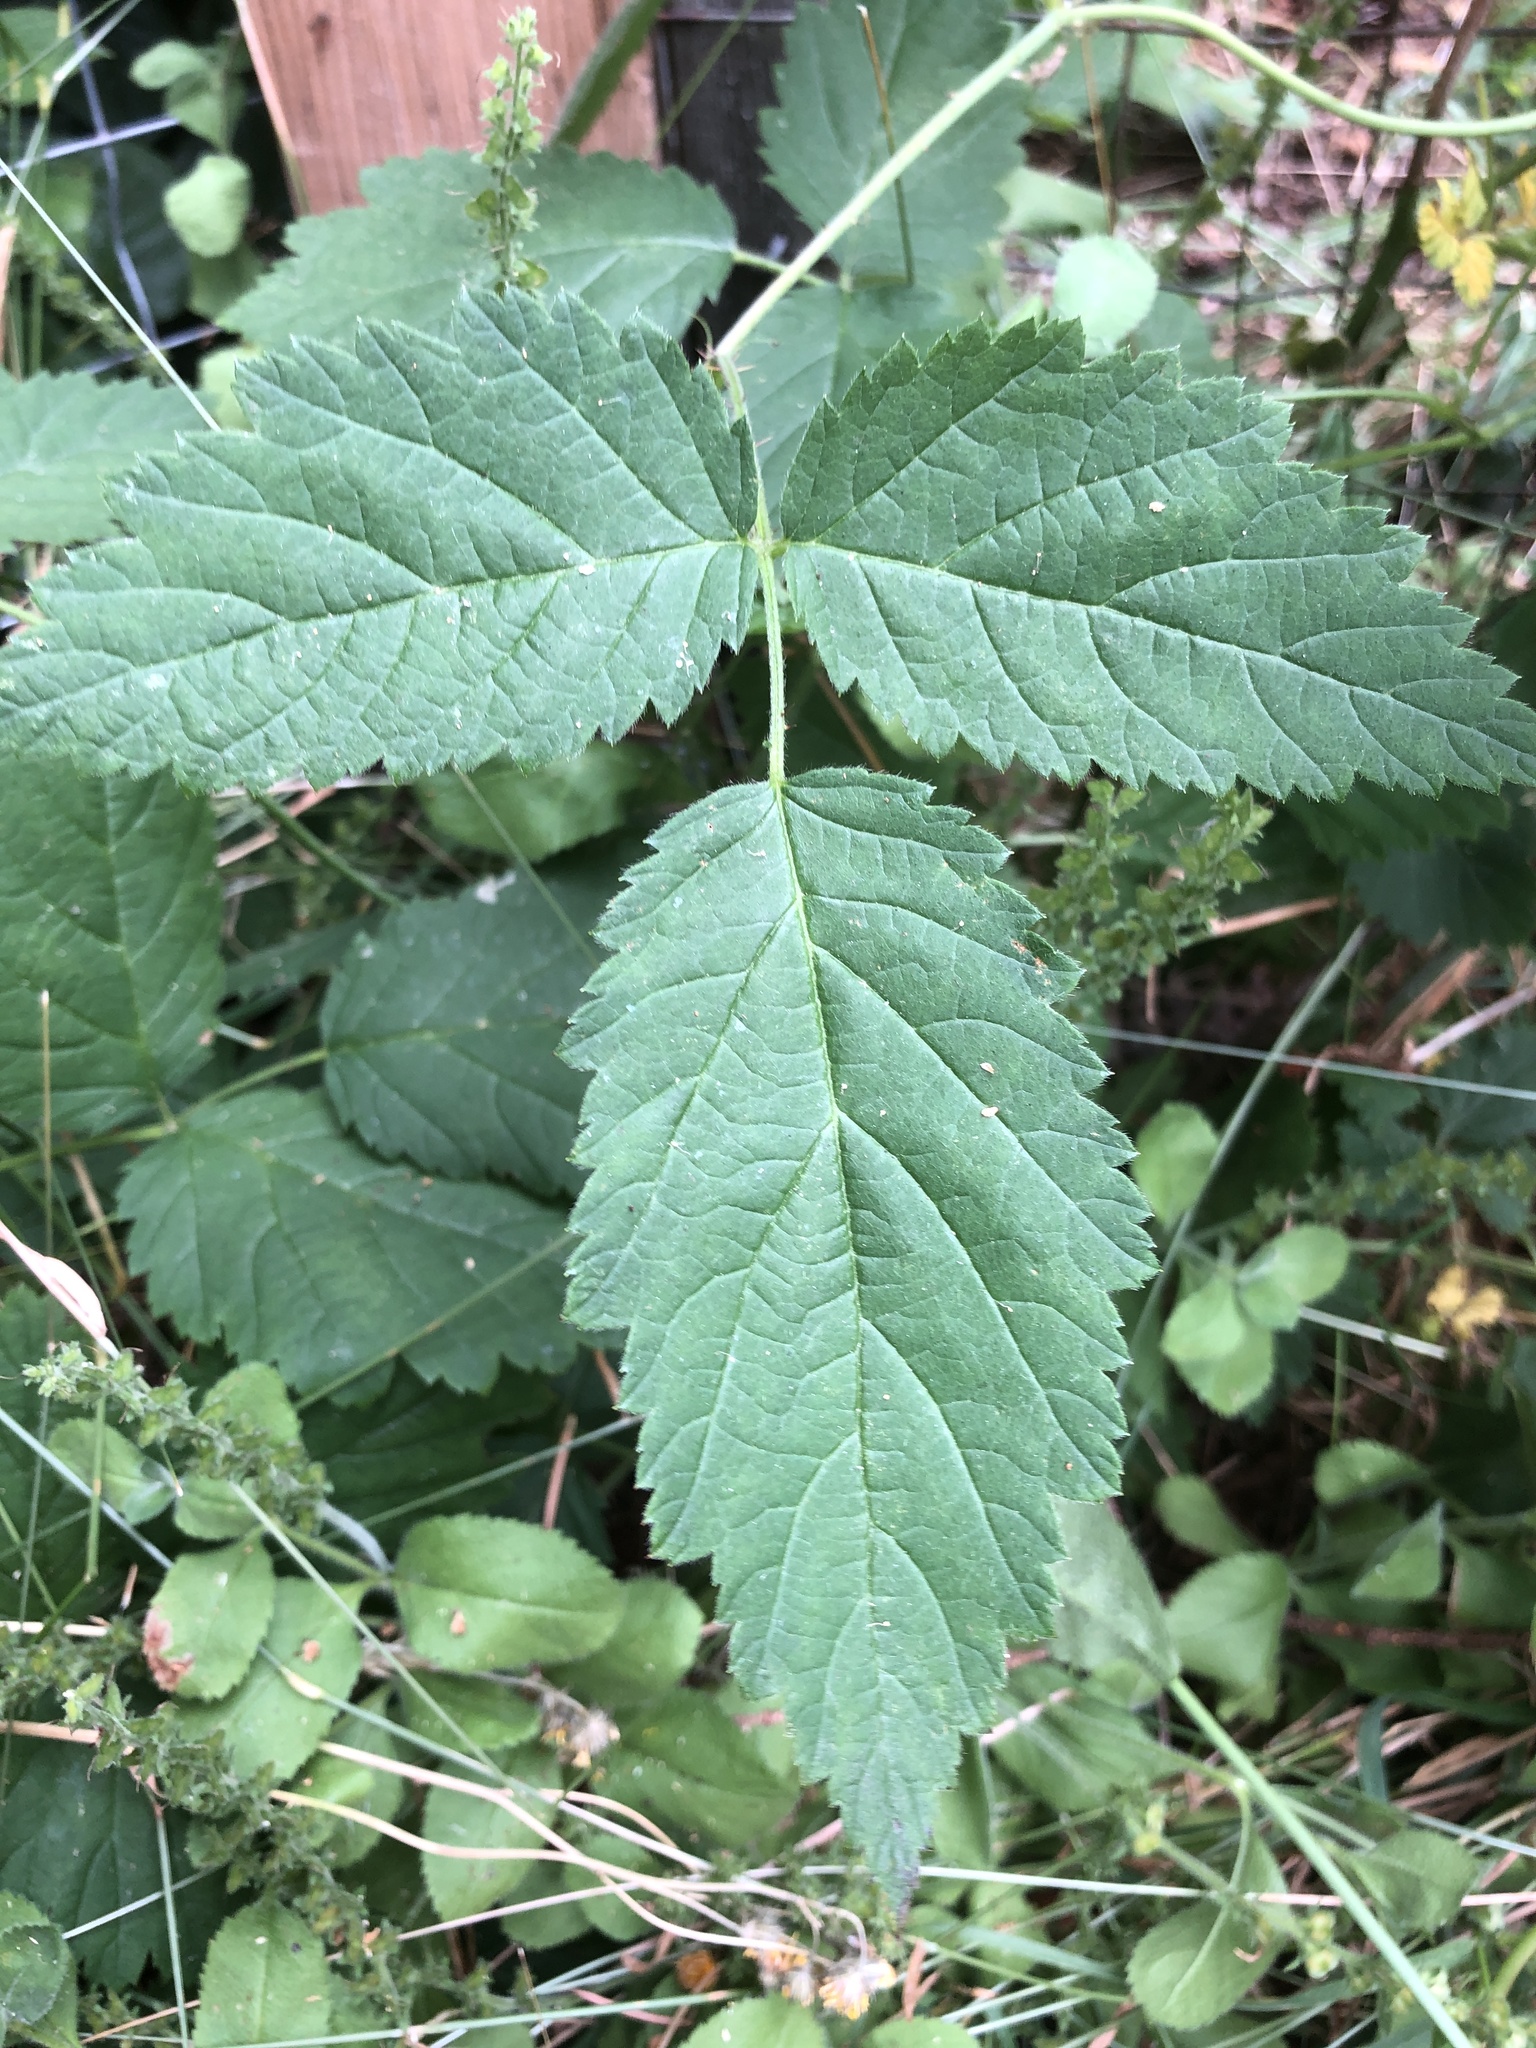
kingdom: Plantae
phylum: Tracheophyta
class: Magnoliopsida
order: Rosales
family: Rosaceae
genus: Rubus
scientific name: Rubus ursinus
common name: Pacific blackberry
